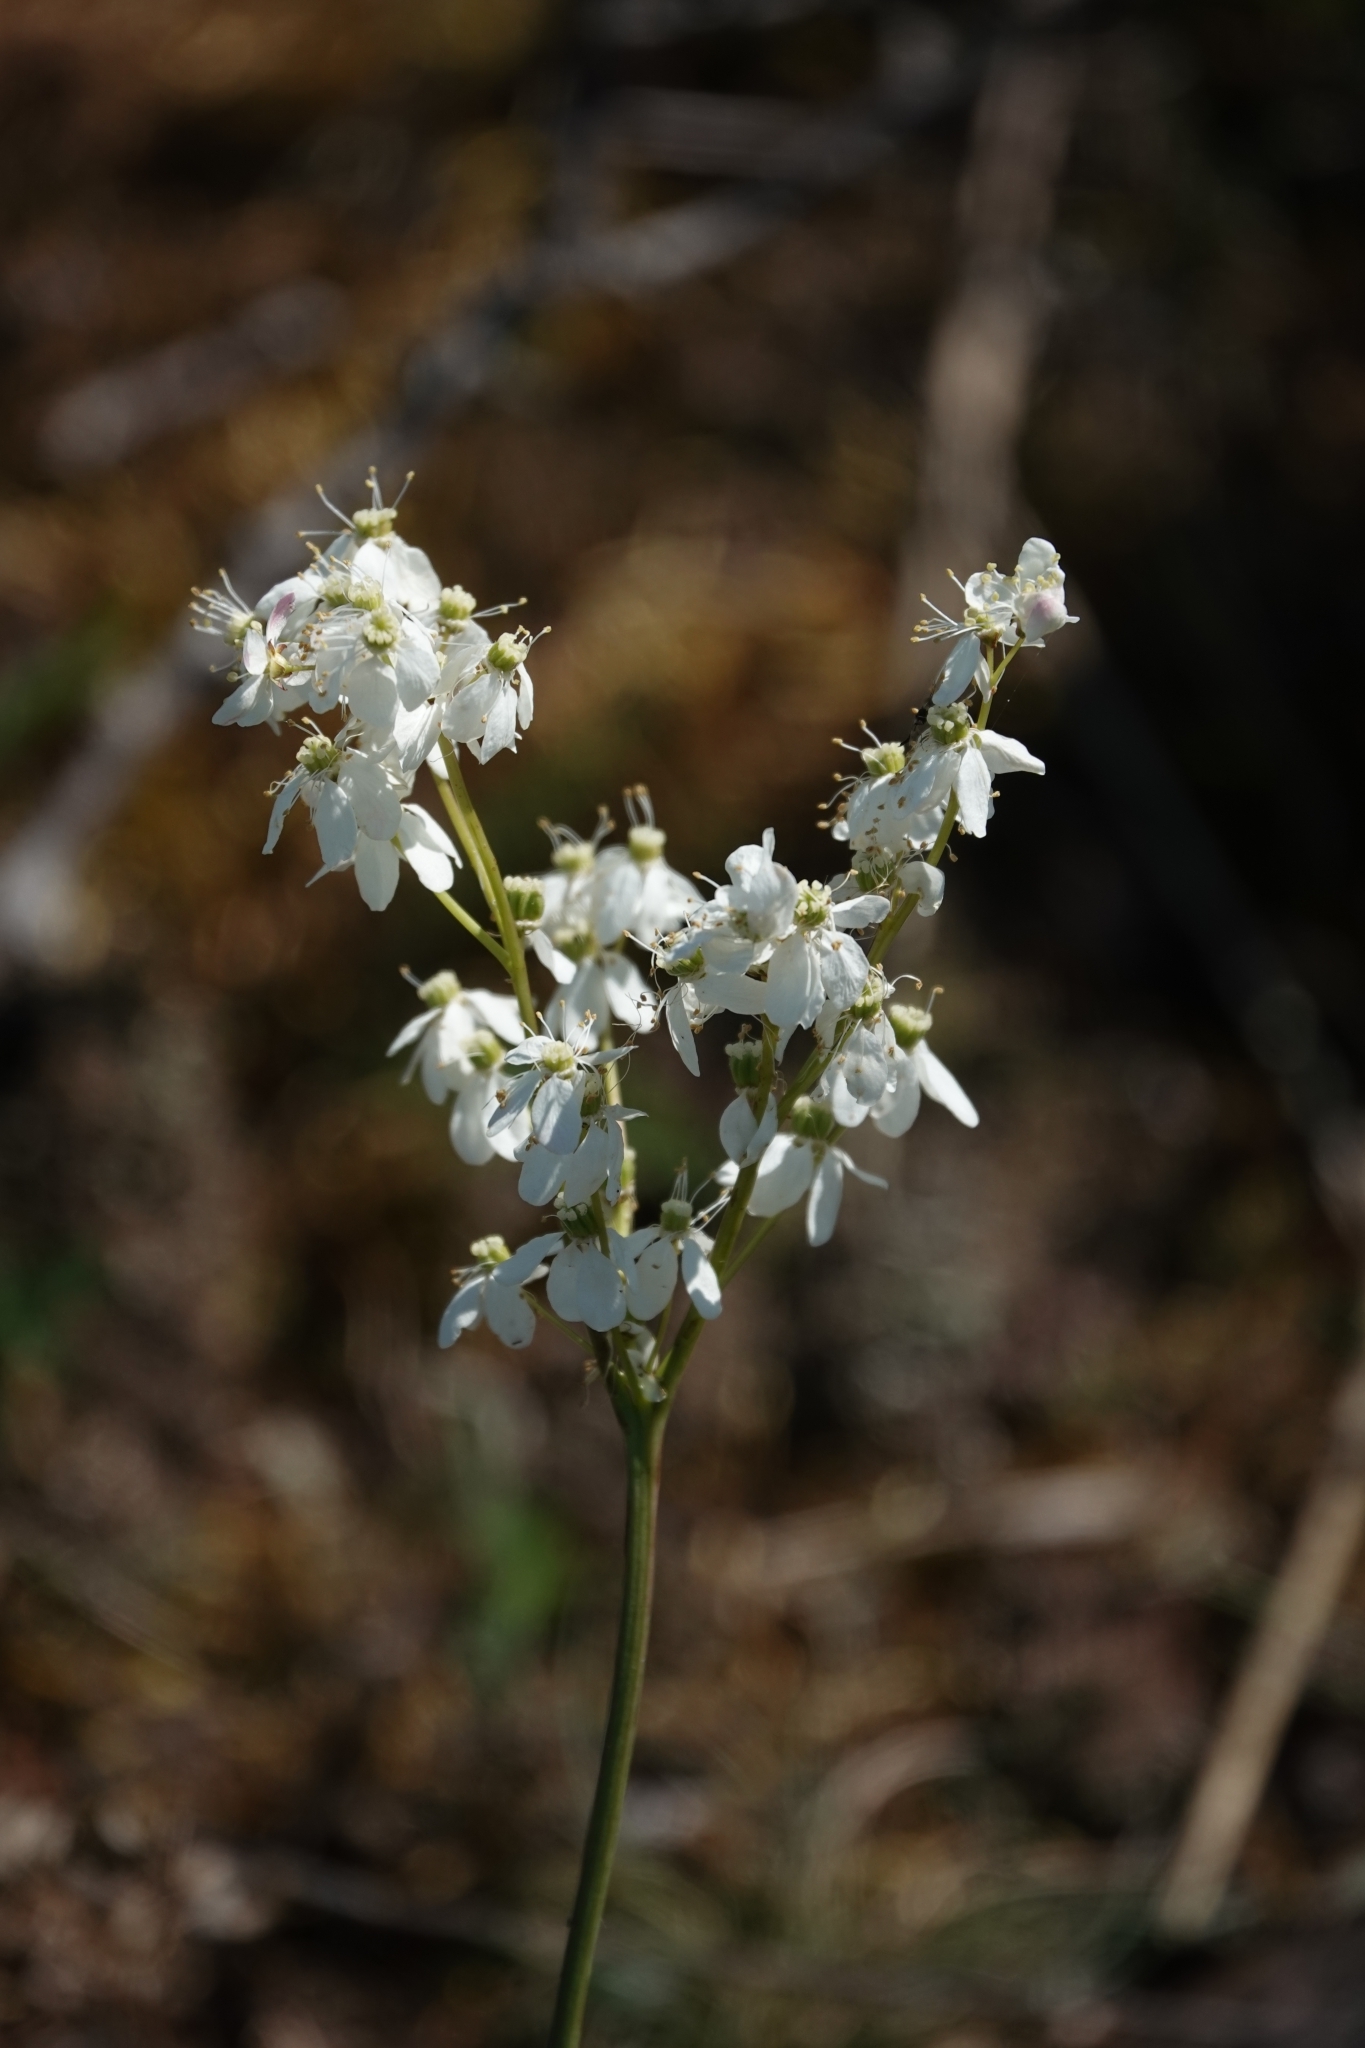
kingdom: Plantae
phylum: Tracheophyta
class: Magnoliopsida
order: Rosales
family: Rosaceae
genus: Filipendula
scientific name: Filipendula vulgaris
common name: Dropwort
